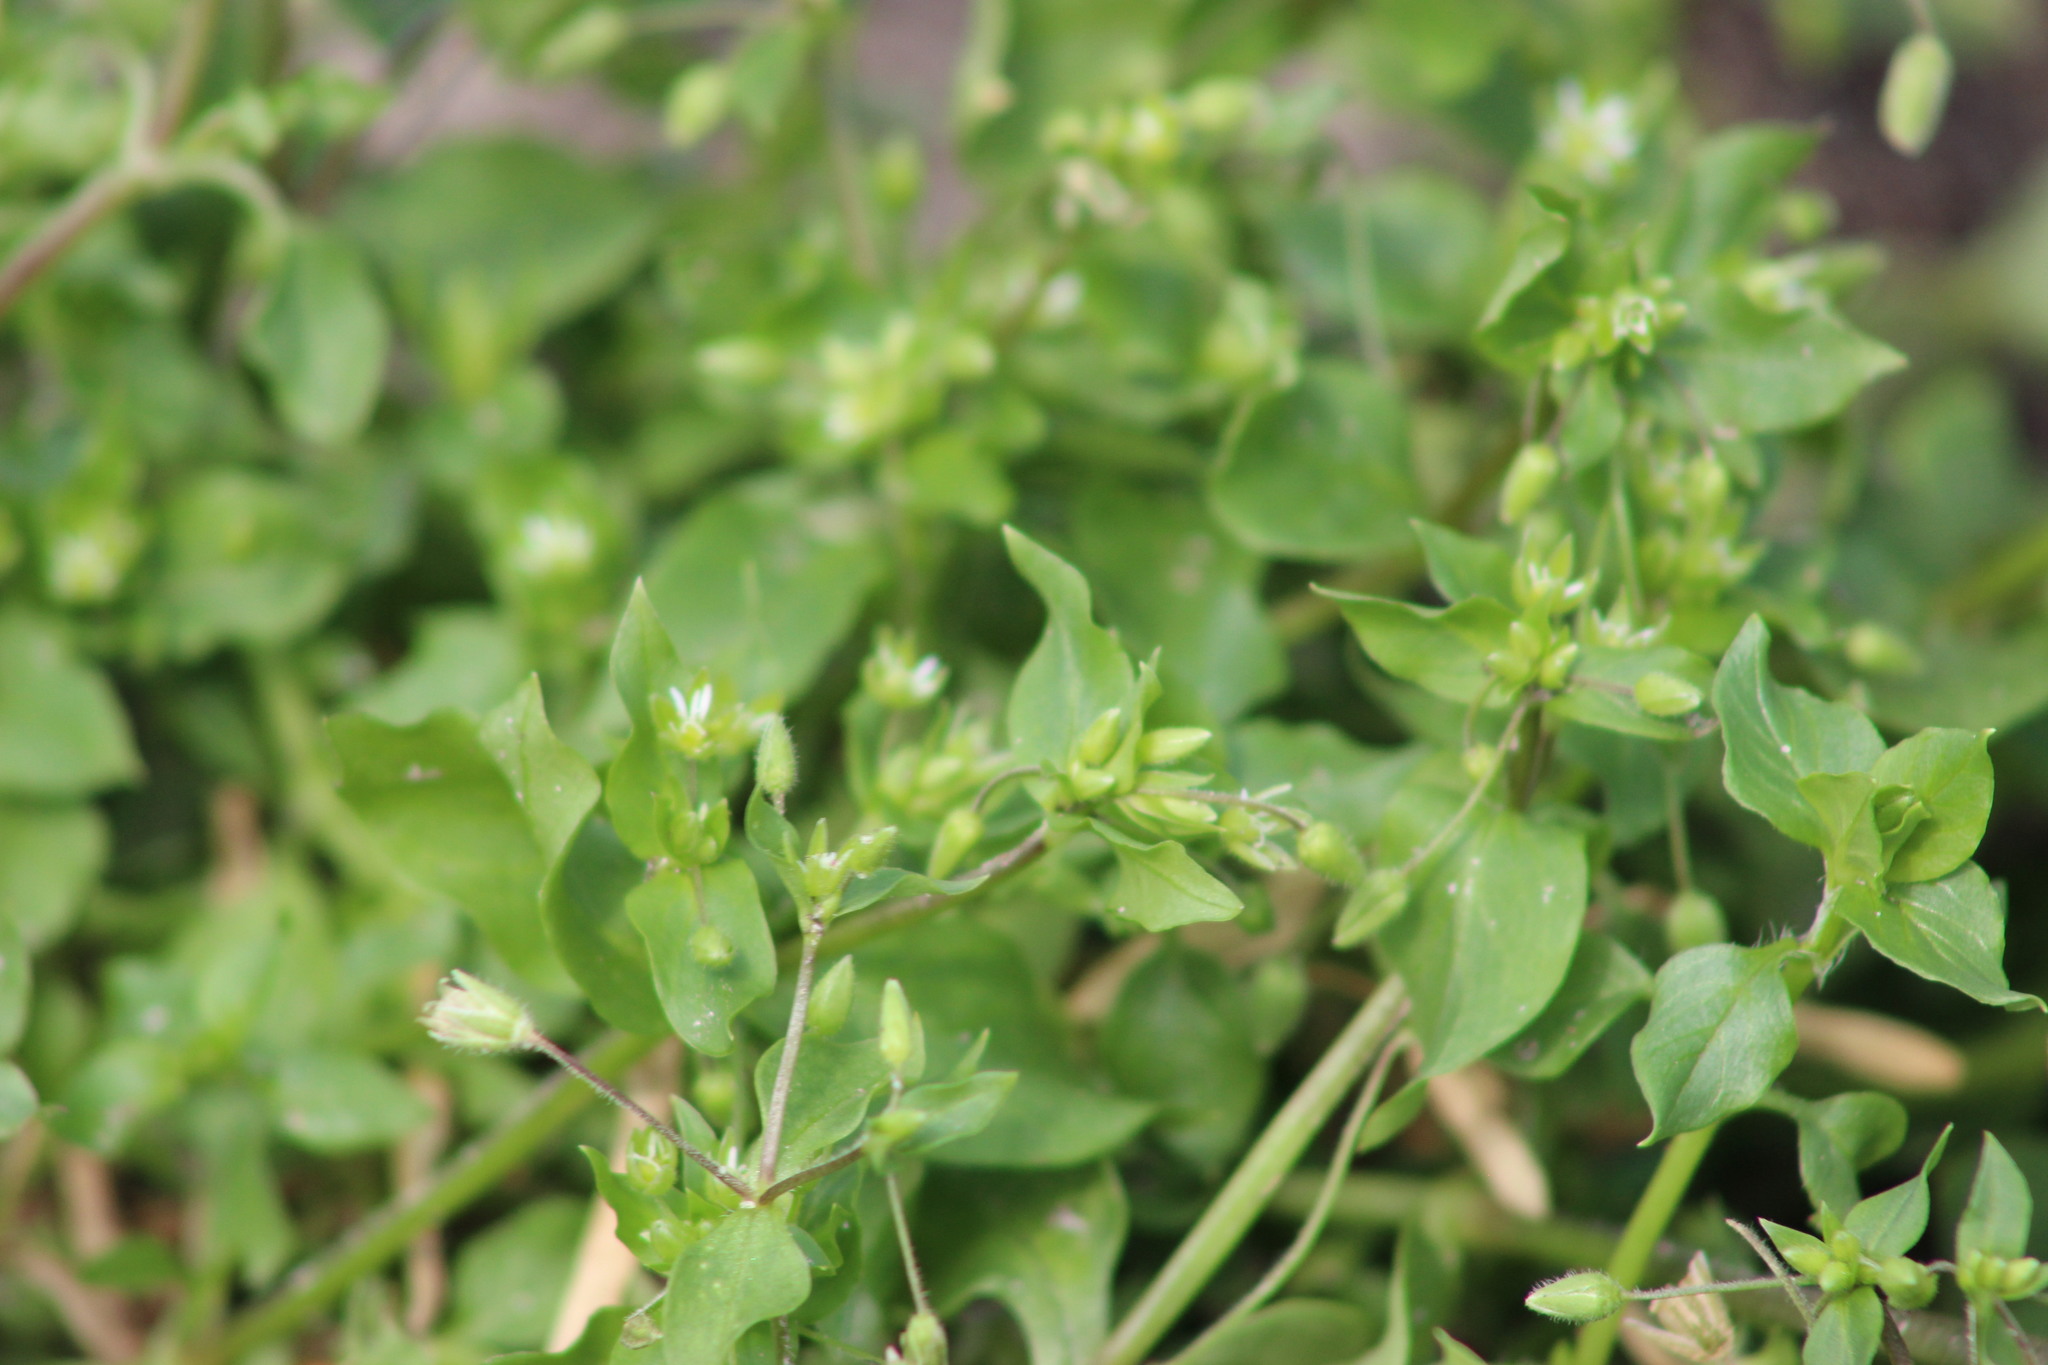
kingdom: Plantae
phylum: Tracheophyta
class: Magnoliopsida
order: Caryophyllales
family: Caryophyllaceae
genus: Stellaria
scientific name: Stellaria media
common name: Common chickweed
